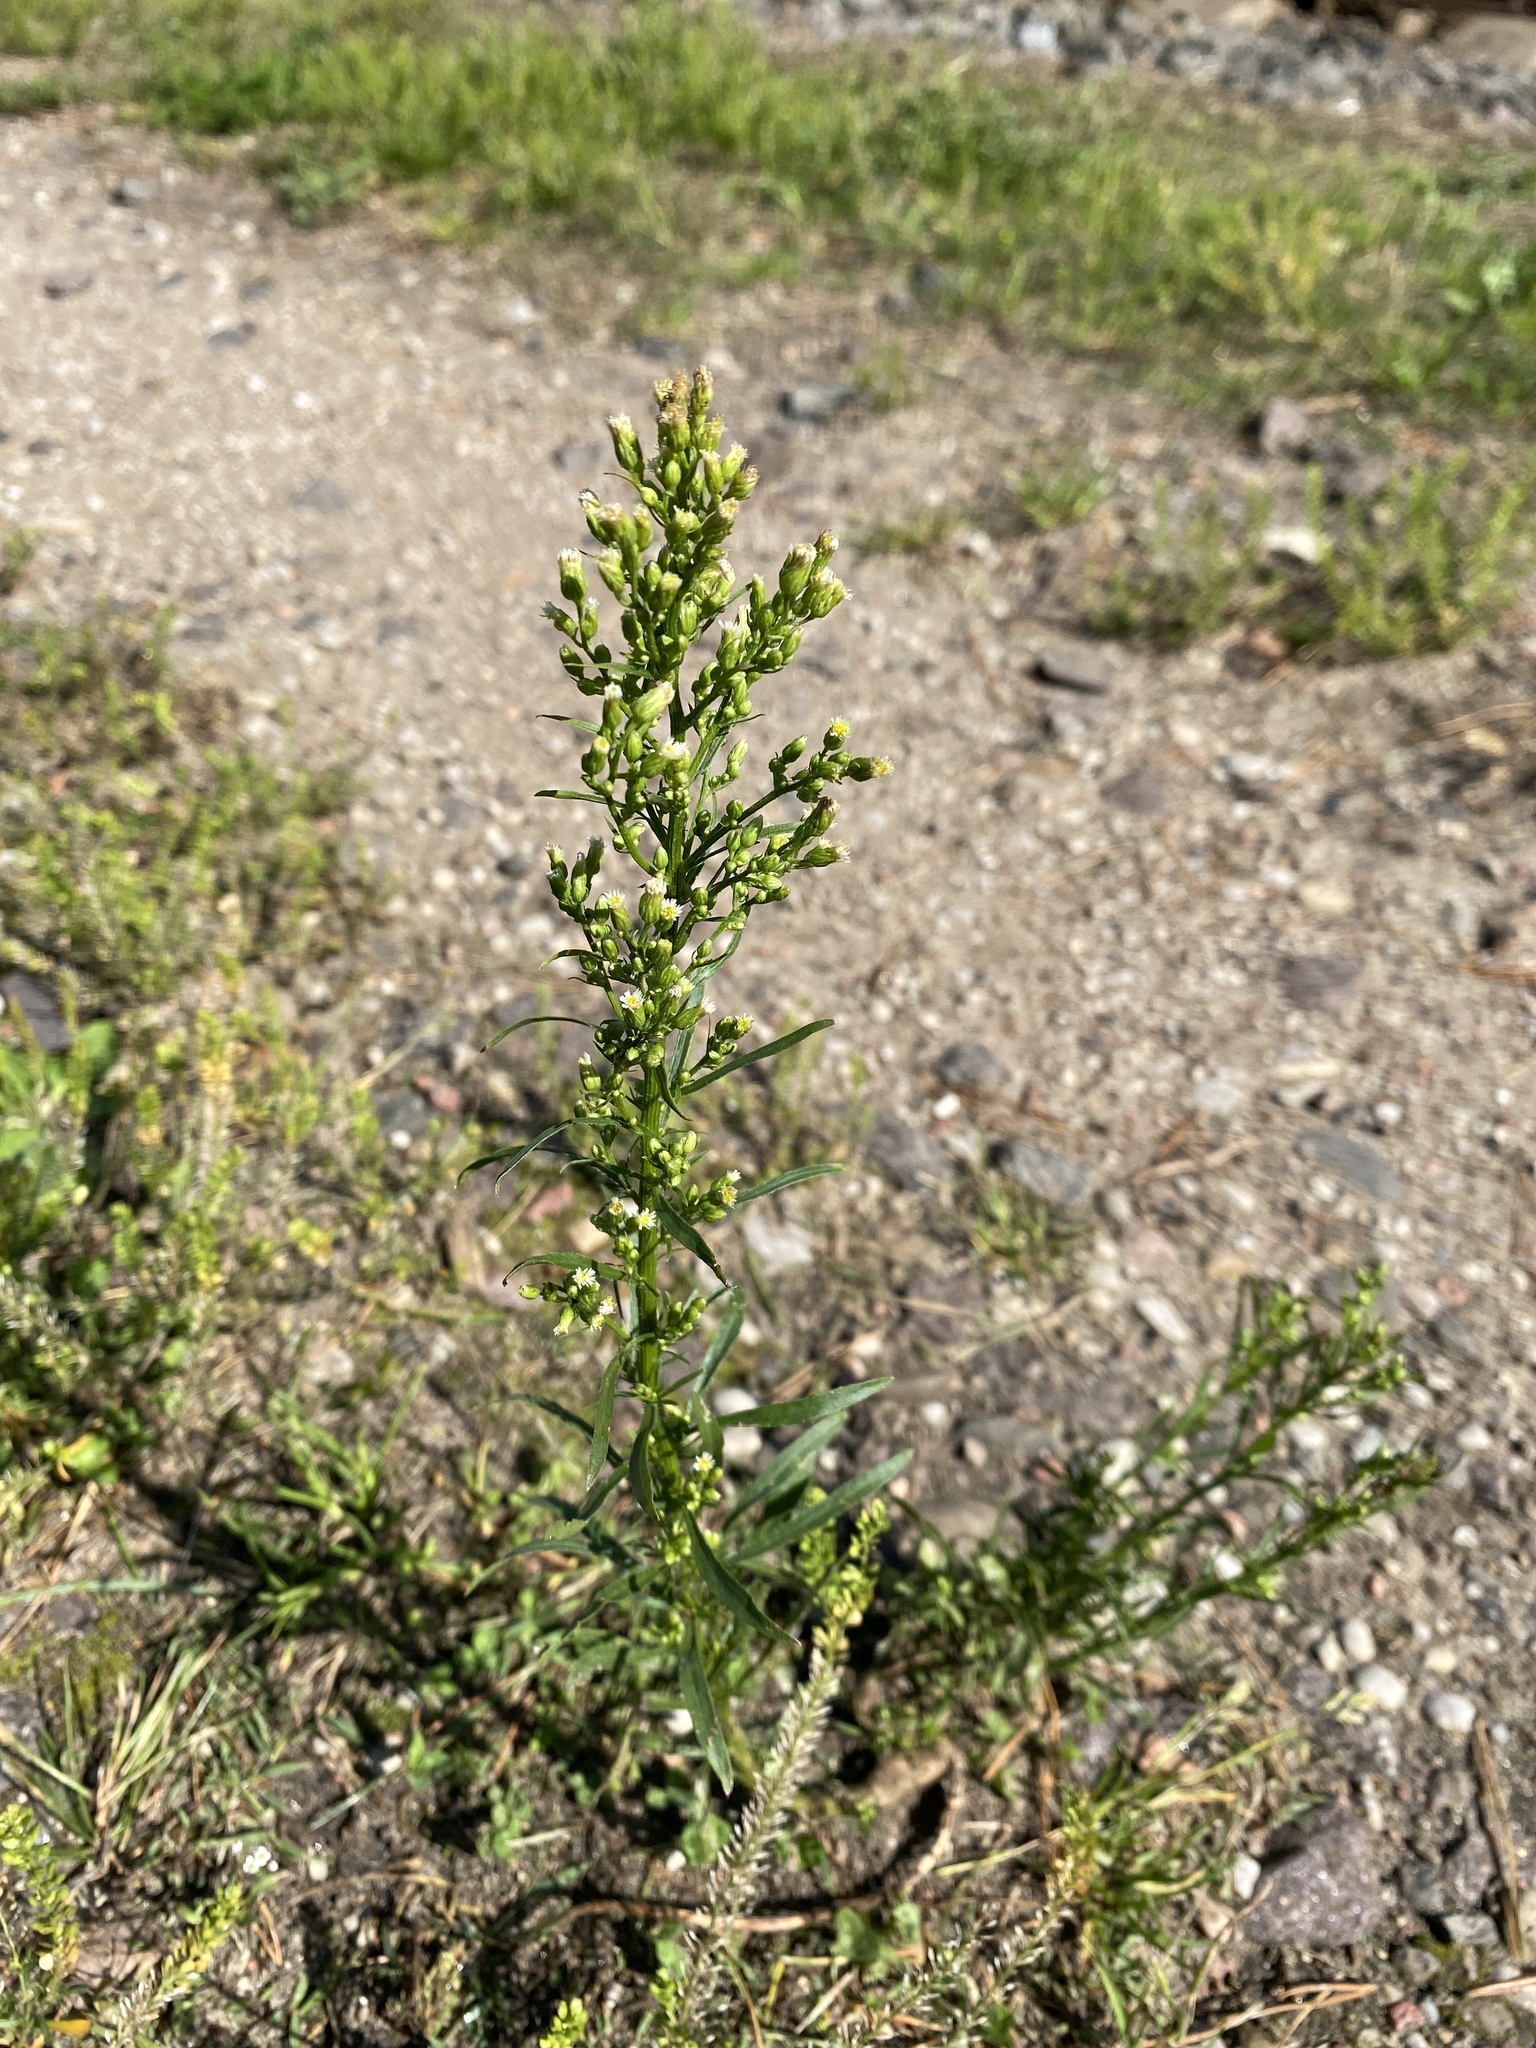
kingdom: Plantae
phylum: Tracheophyta
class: Magnoliopsida
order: Asterales
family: Asteraceae
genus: Erigeron
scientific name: Erigeron canadensis
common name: Canadian fleabane
